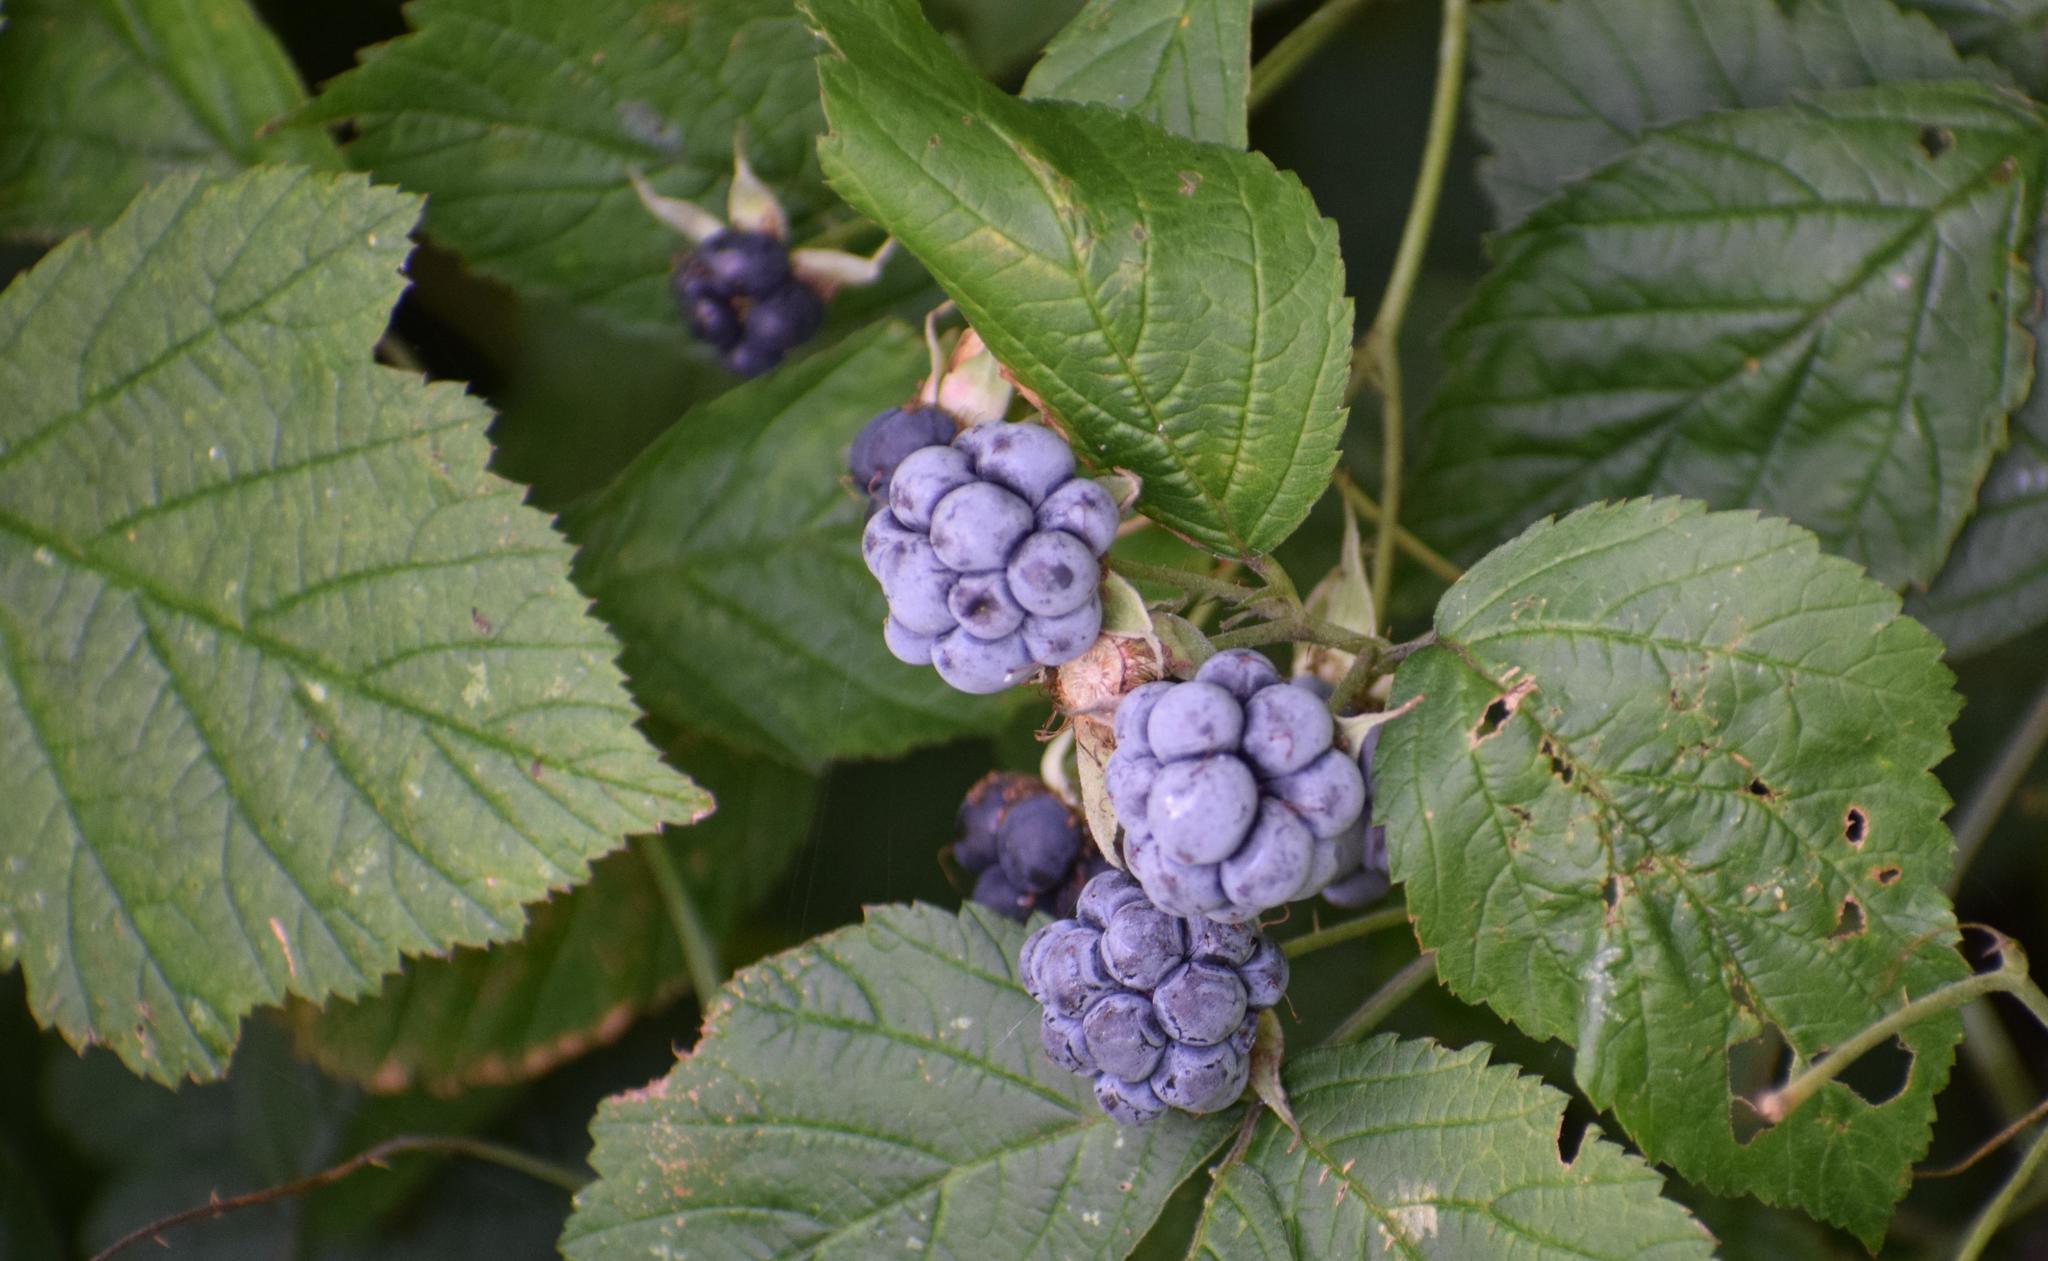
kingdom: Plantae
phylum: Tracheophyta
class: Magnoliopsida
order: Rosales
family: Rosaceae
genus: Rubus
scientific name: Rubus caesius
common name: Dewberry
